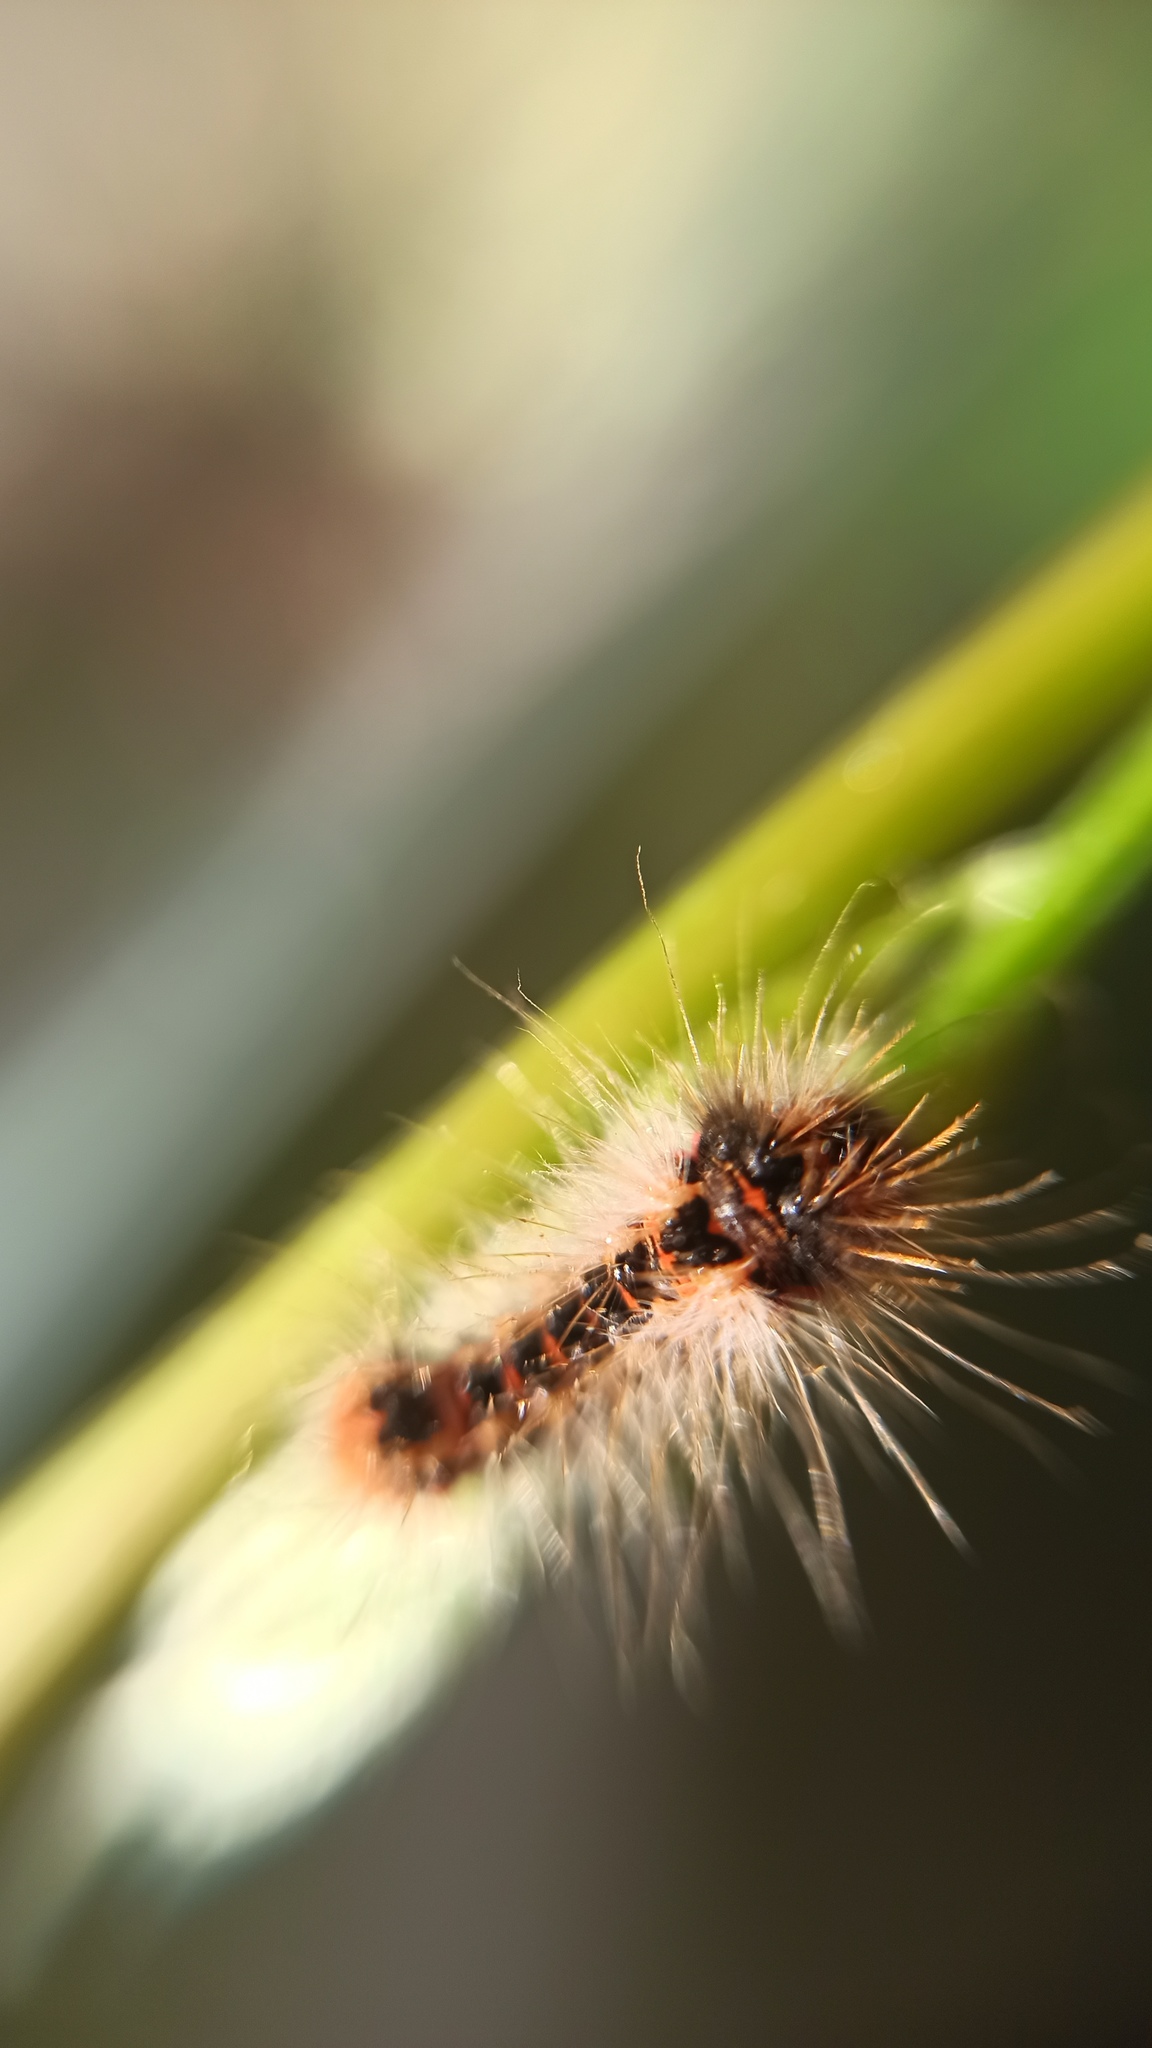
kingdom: Animalia
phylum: Arthropoda
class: Insecta
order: Lepidoptera
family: Noctuidae
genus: Acronicta
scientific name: Acronicta rumicis
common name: Knot grass
